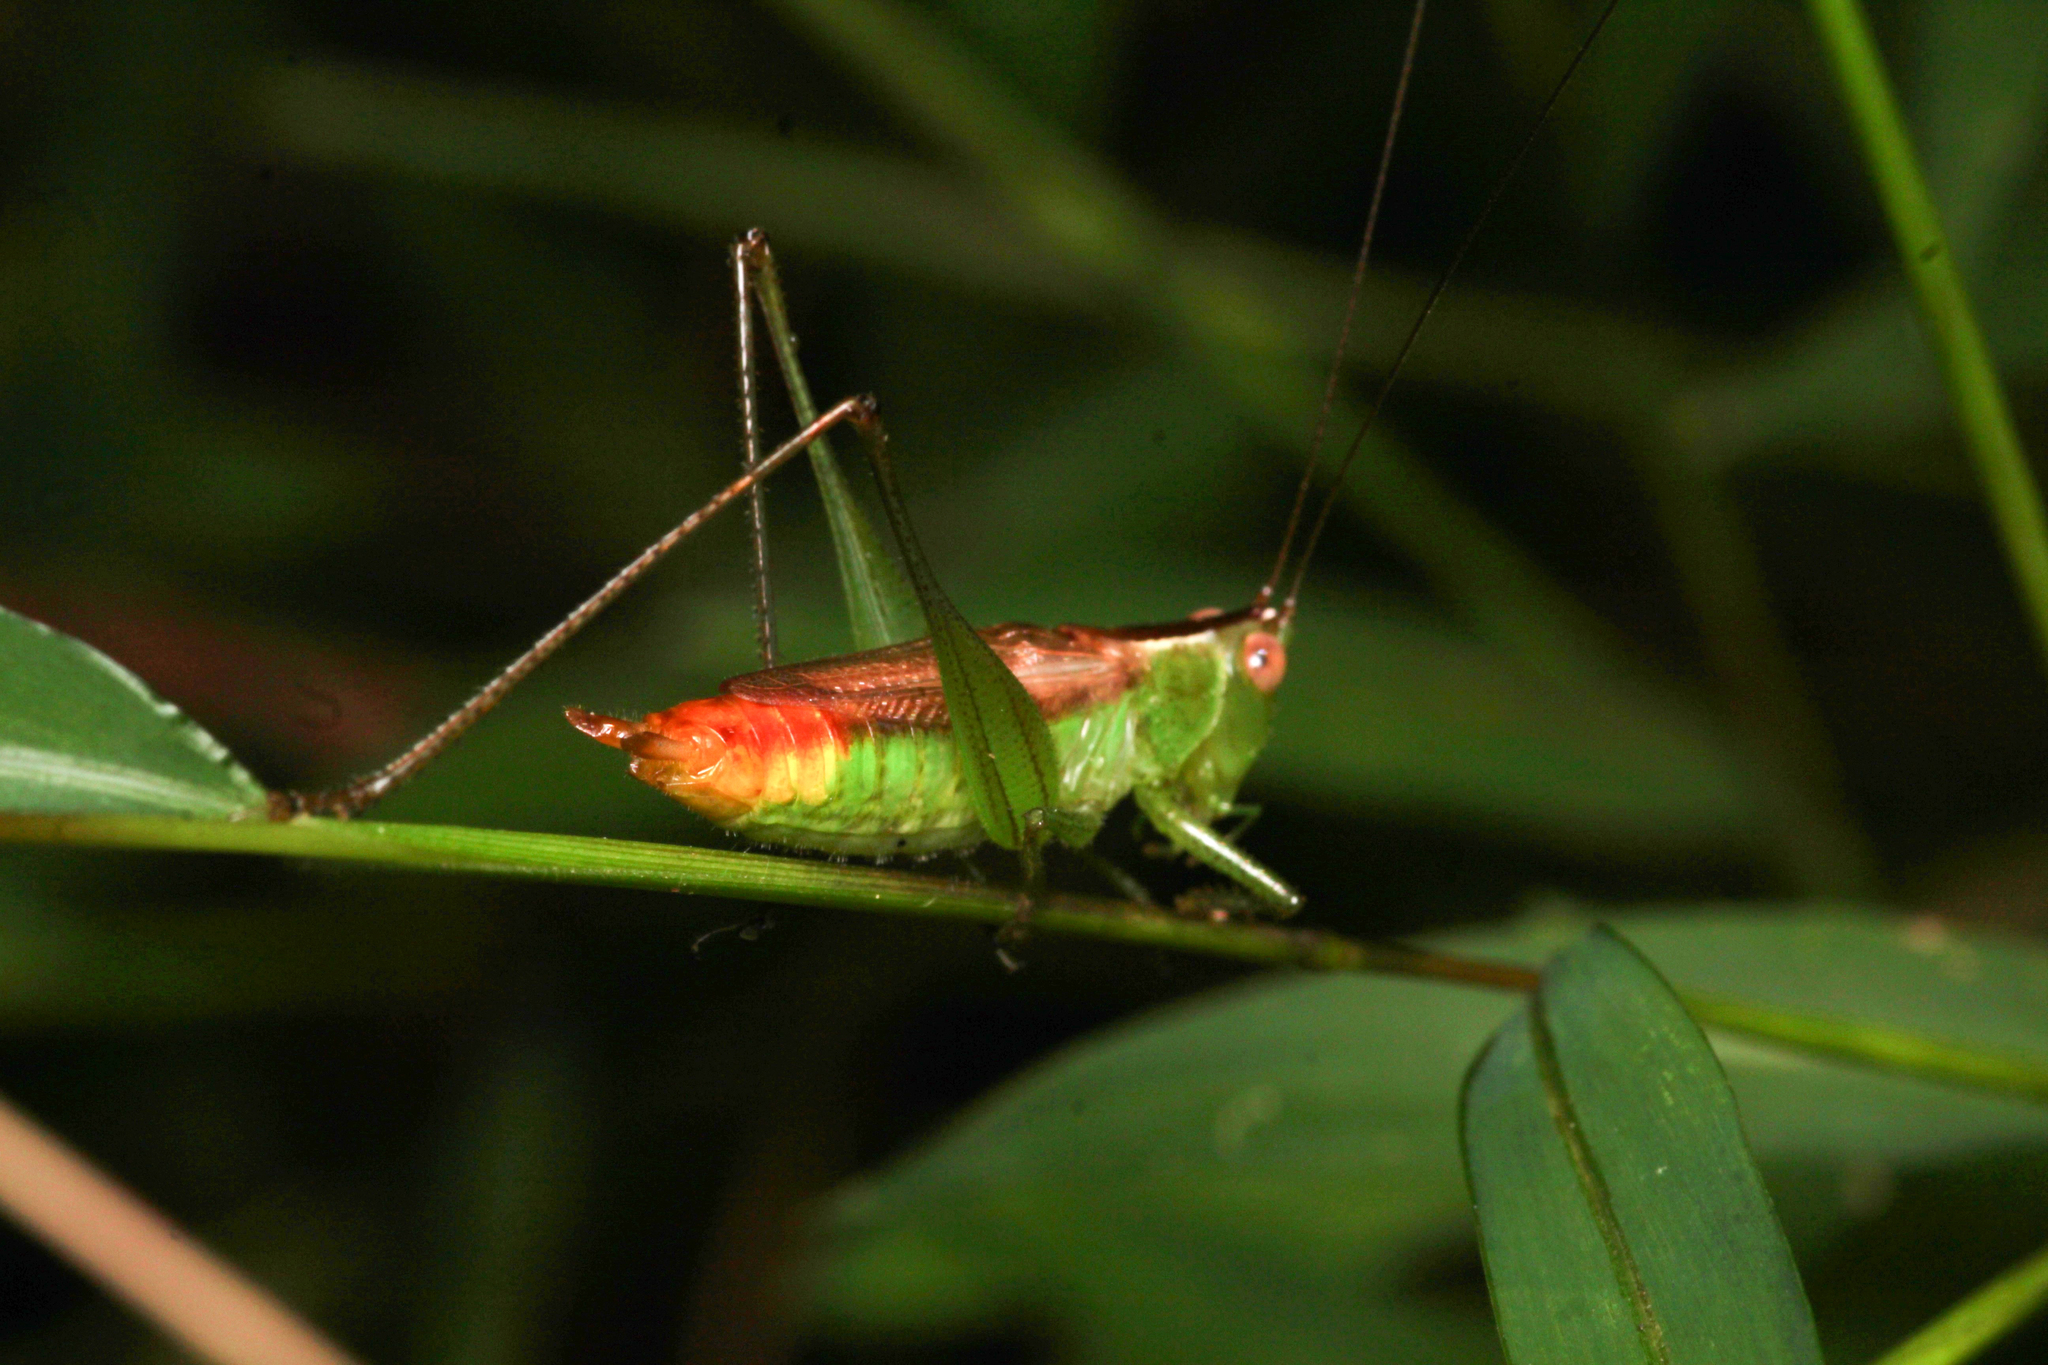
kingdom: Animalia
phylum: Arthropoda
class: Insecta
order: Orthoptera
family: Tettigoniidae
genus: Conocephalus
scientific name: Conocephalus brevipennis
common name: Short-winged meadow katydid
